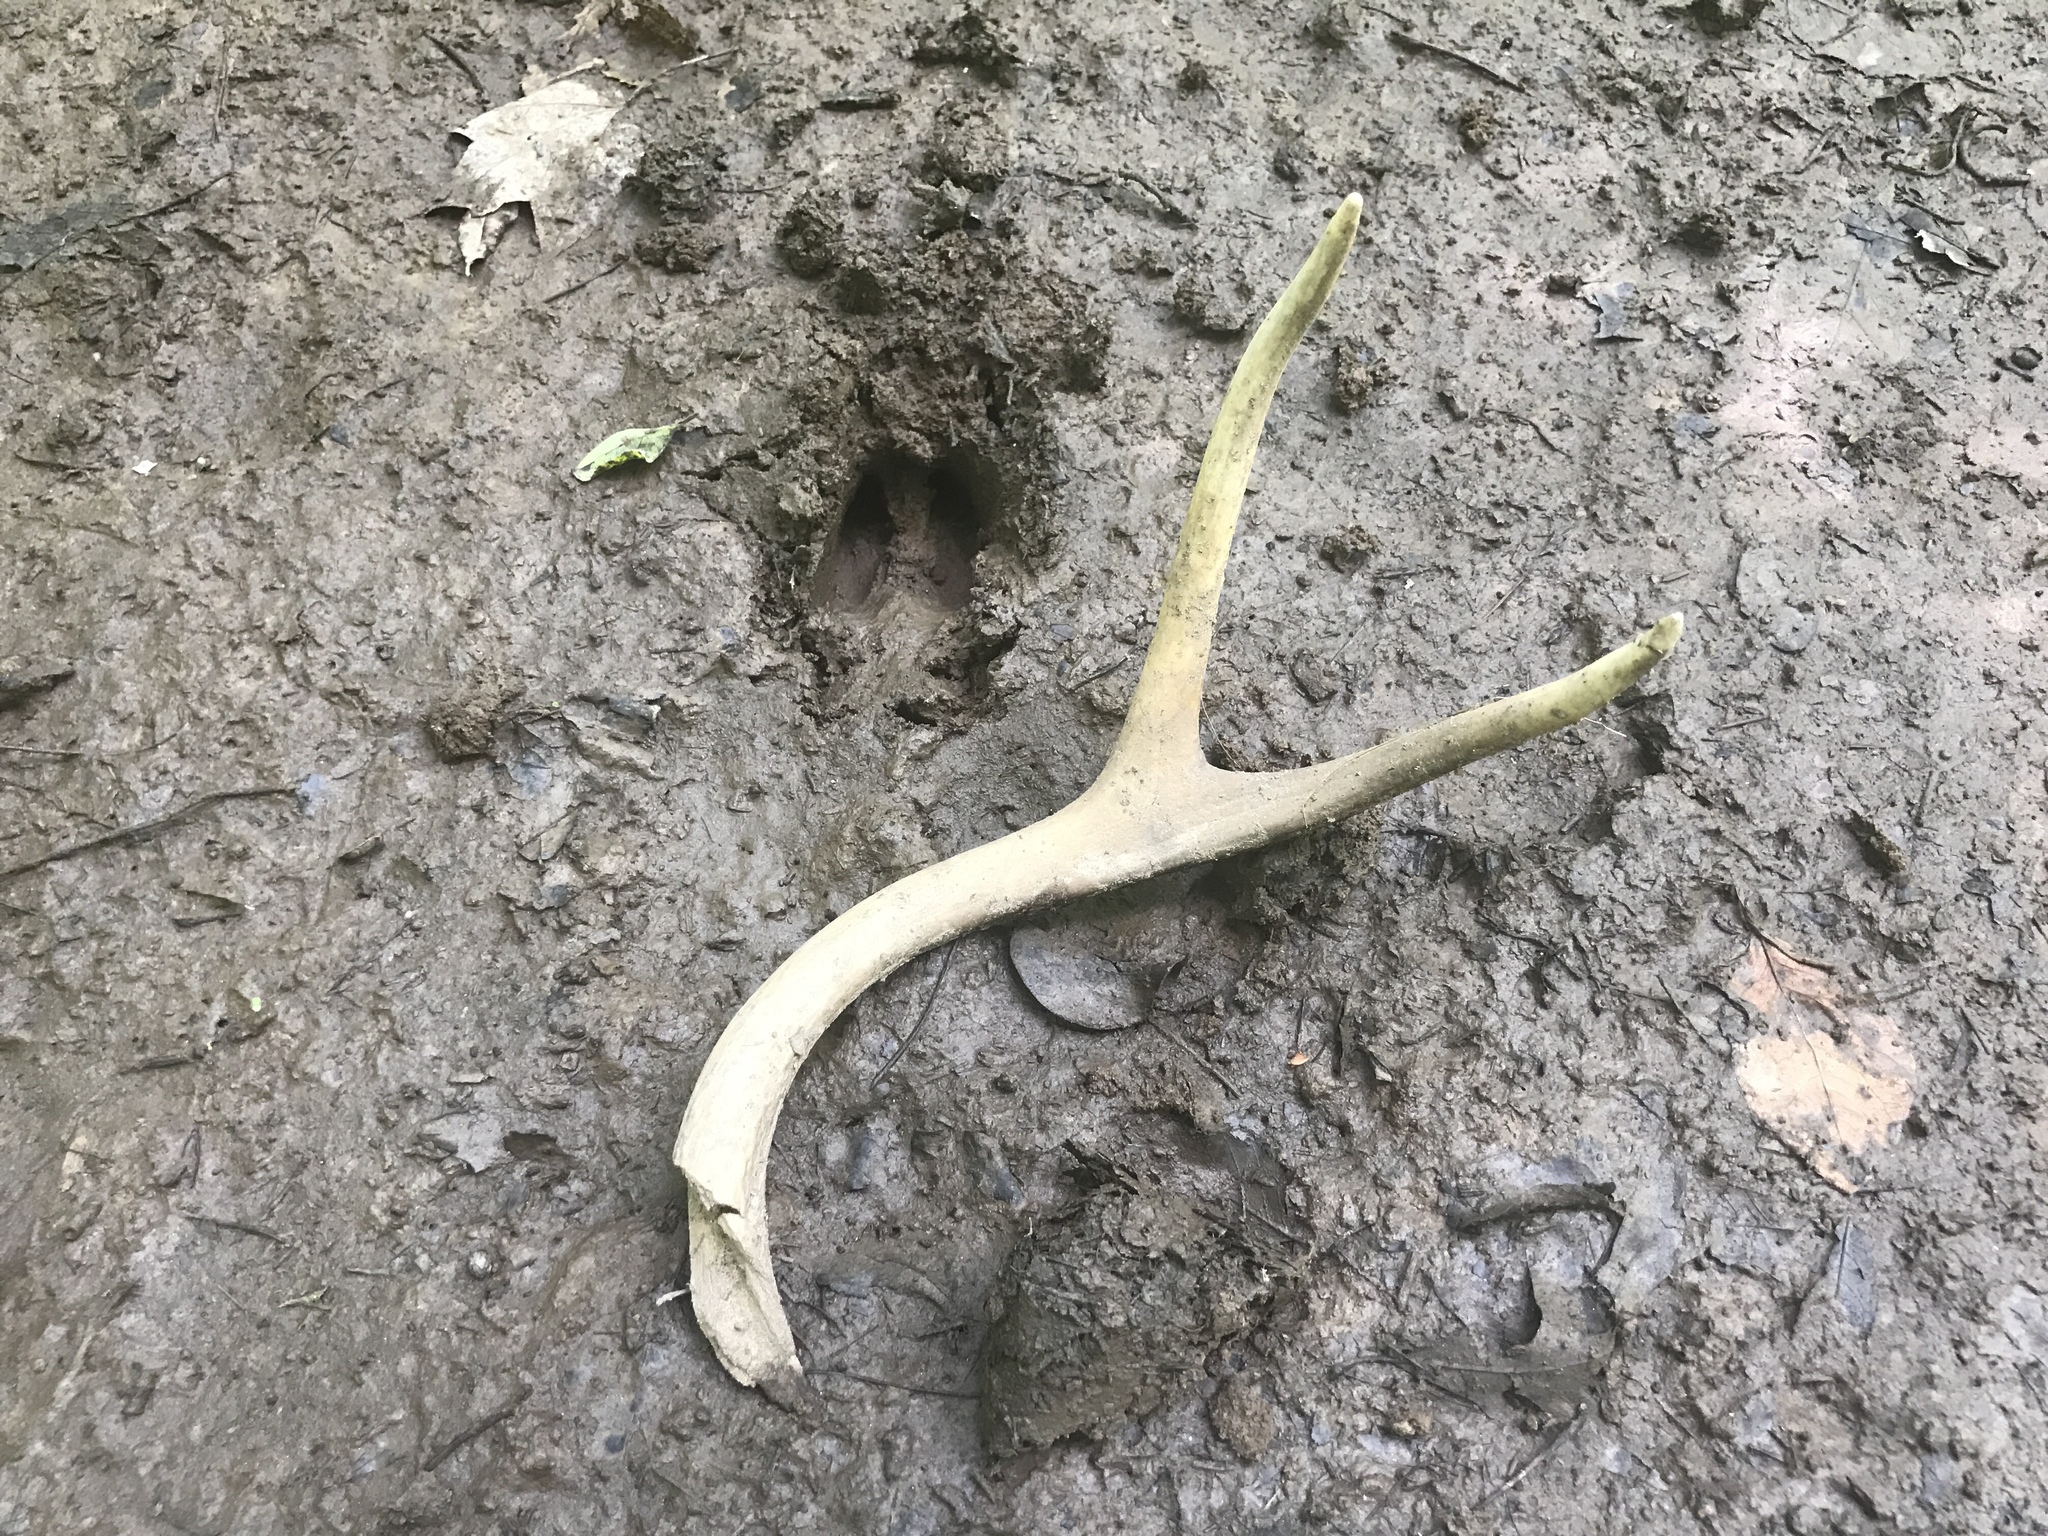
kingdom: Animalia
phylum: Chordata
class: Mammalia
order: Artiodactyla
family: Cervidae
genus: Odocoileus
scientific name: Odocoileus virginianus
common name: White-tailed deer
